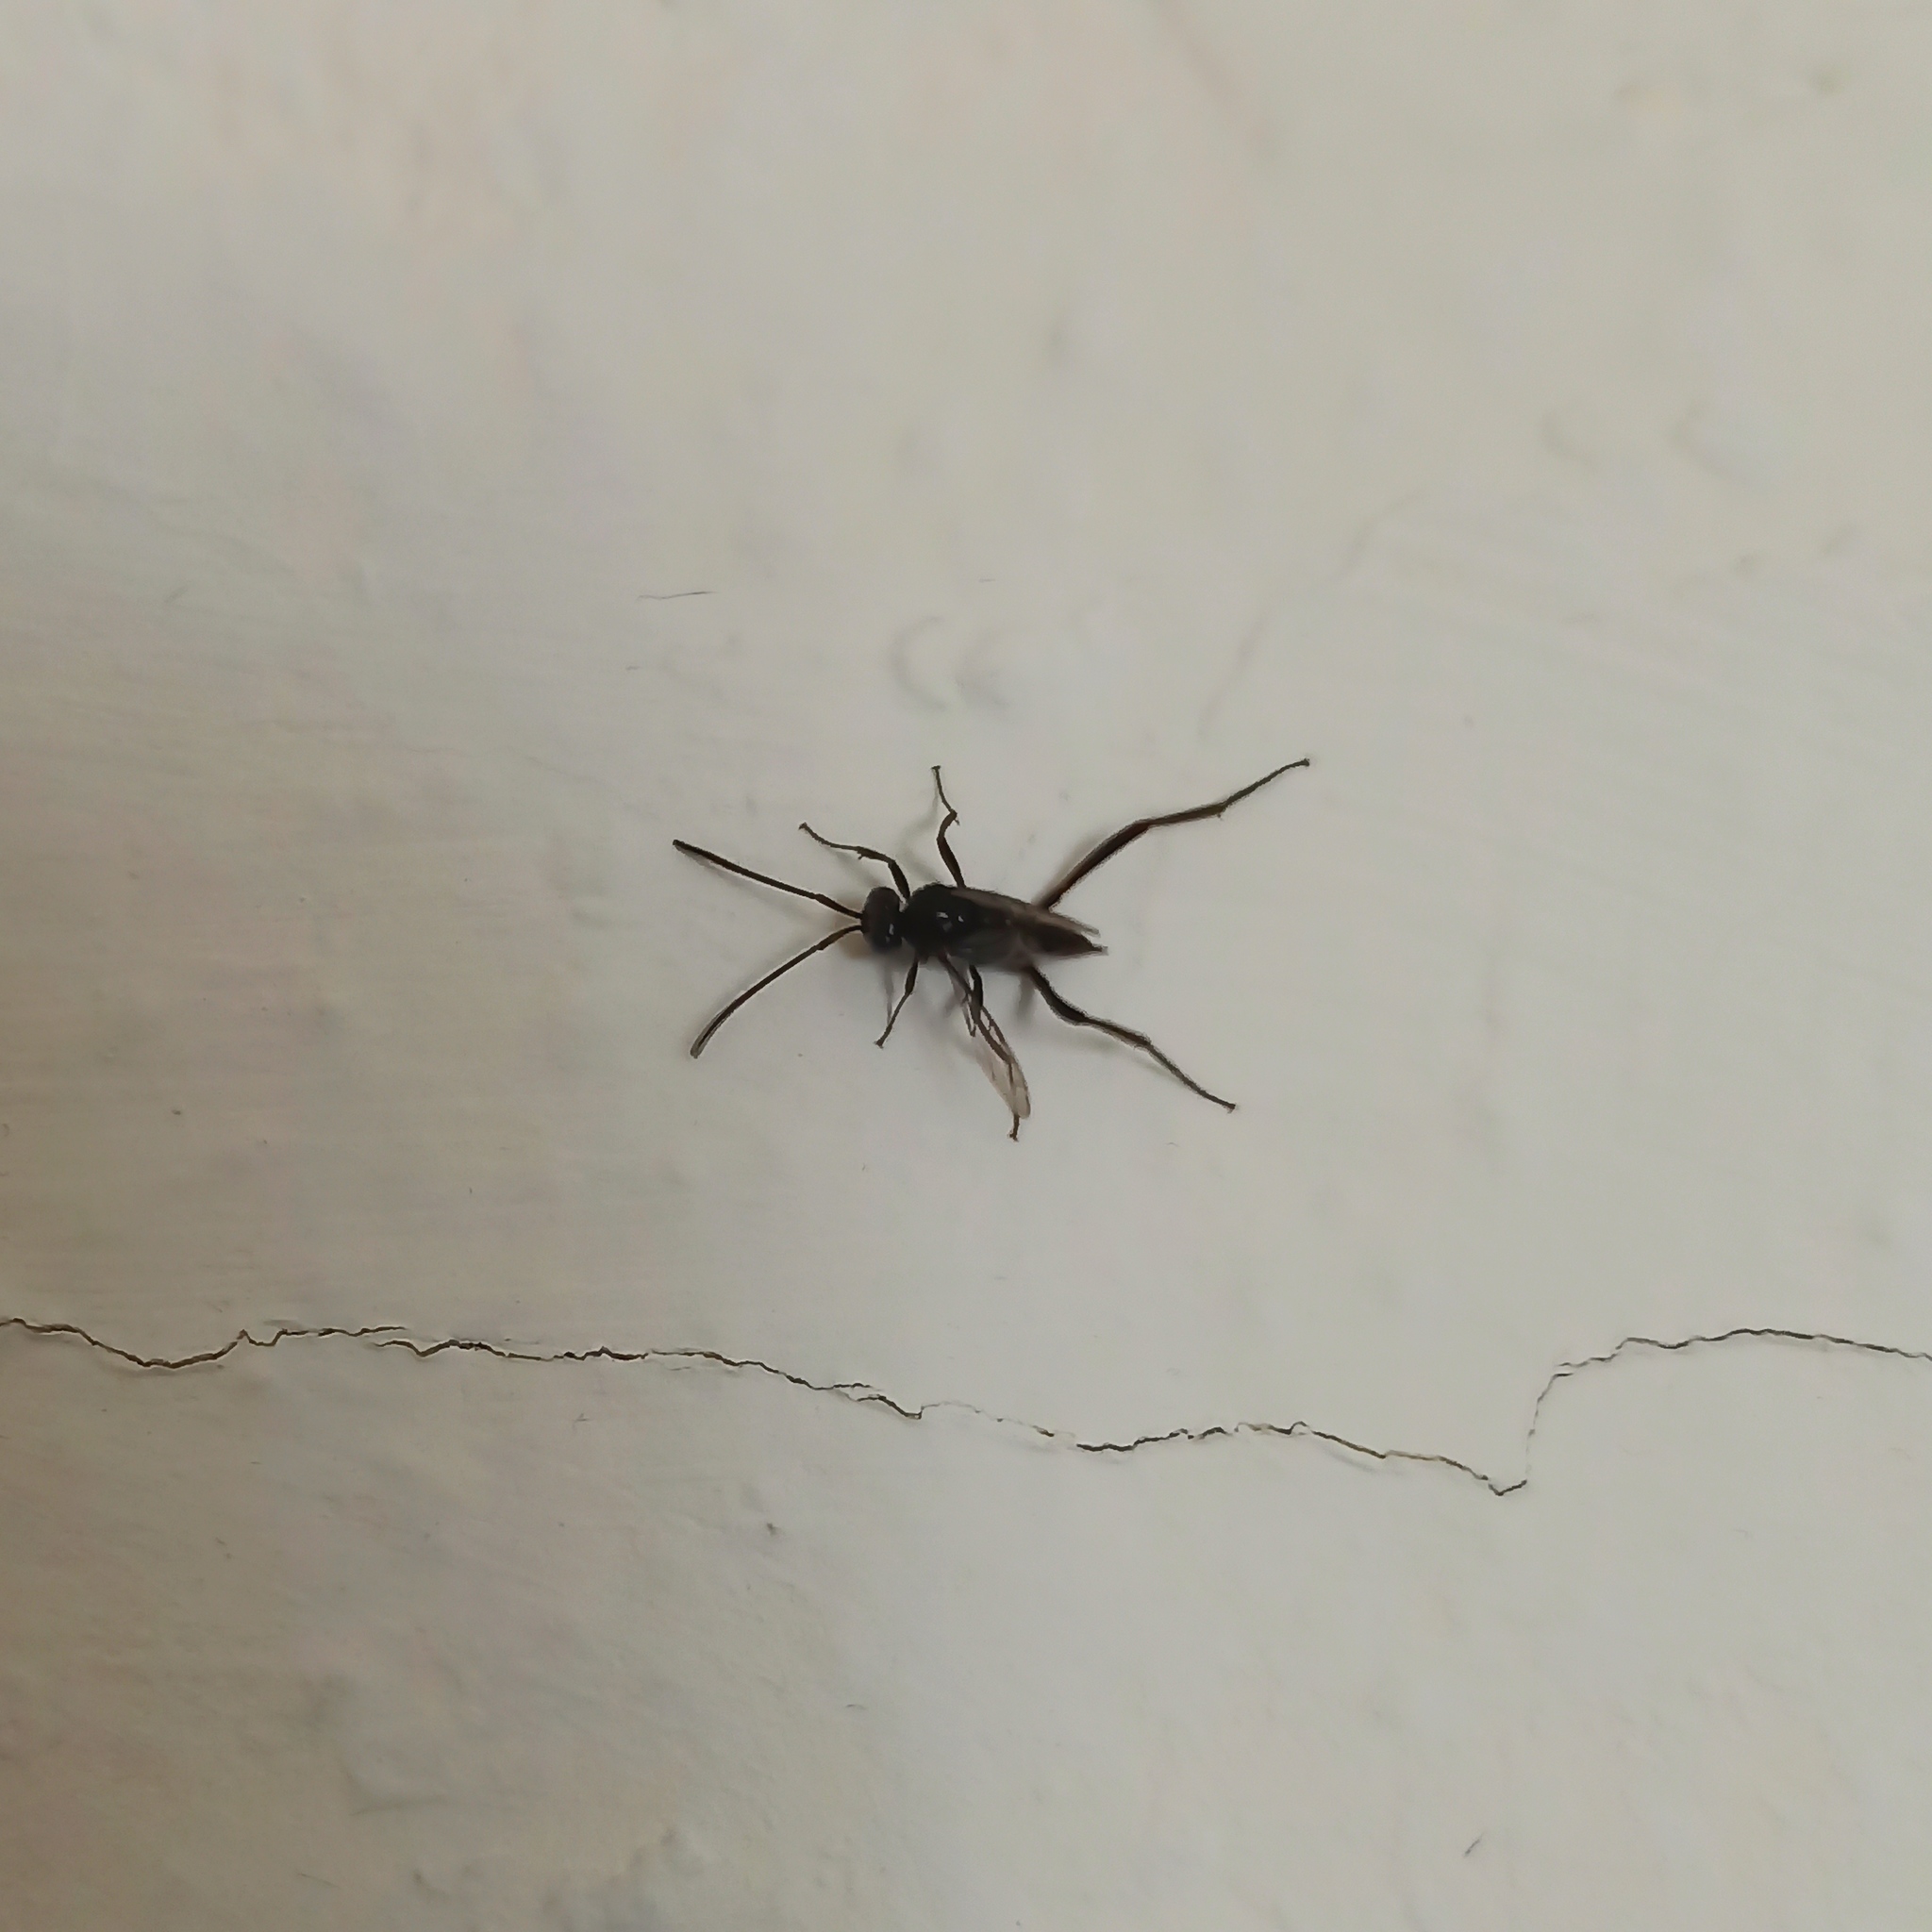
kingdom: Animalia
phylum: Arthropoda
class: Insecta
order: Hymenoptera
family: Evaniidae
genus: Evania
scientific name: Evania appendigaster
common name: Ensign wasp
